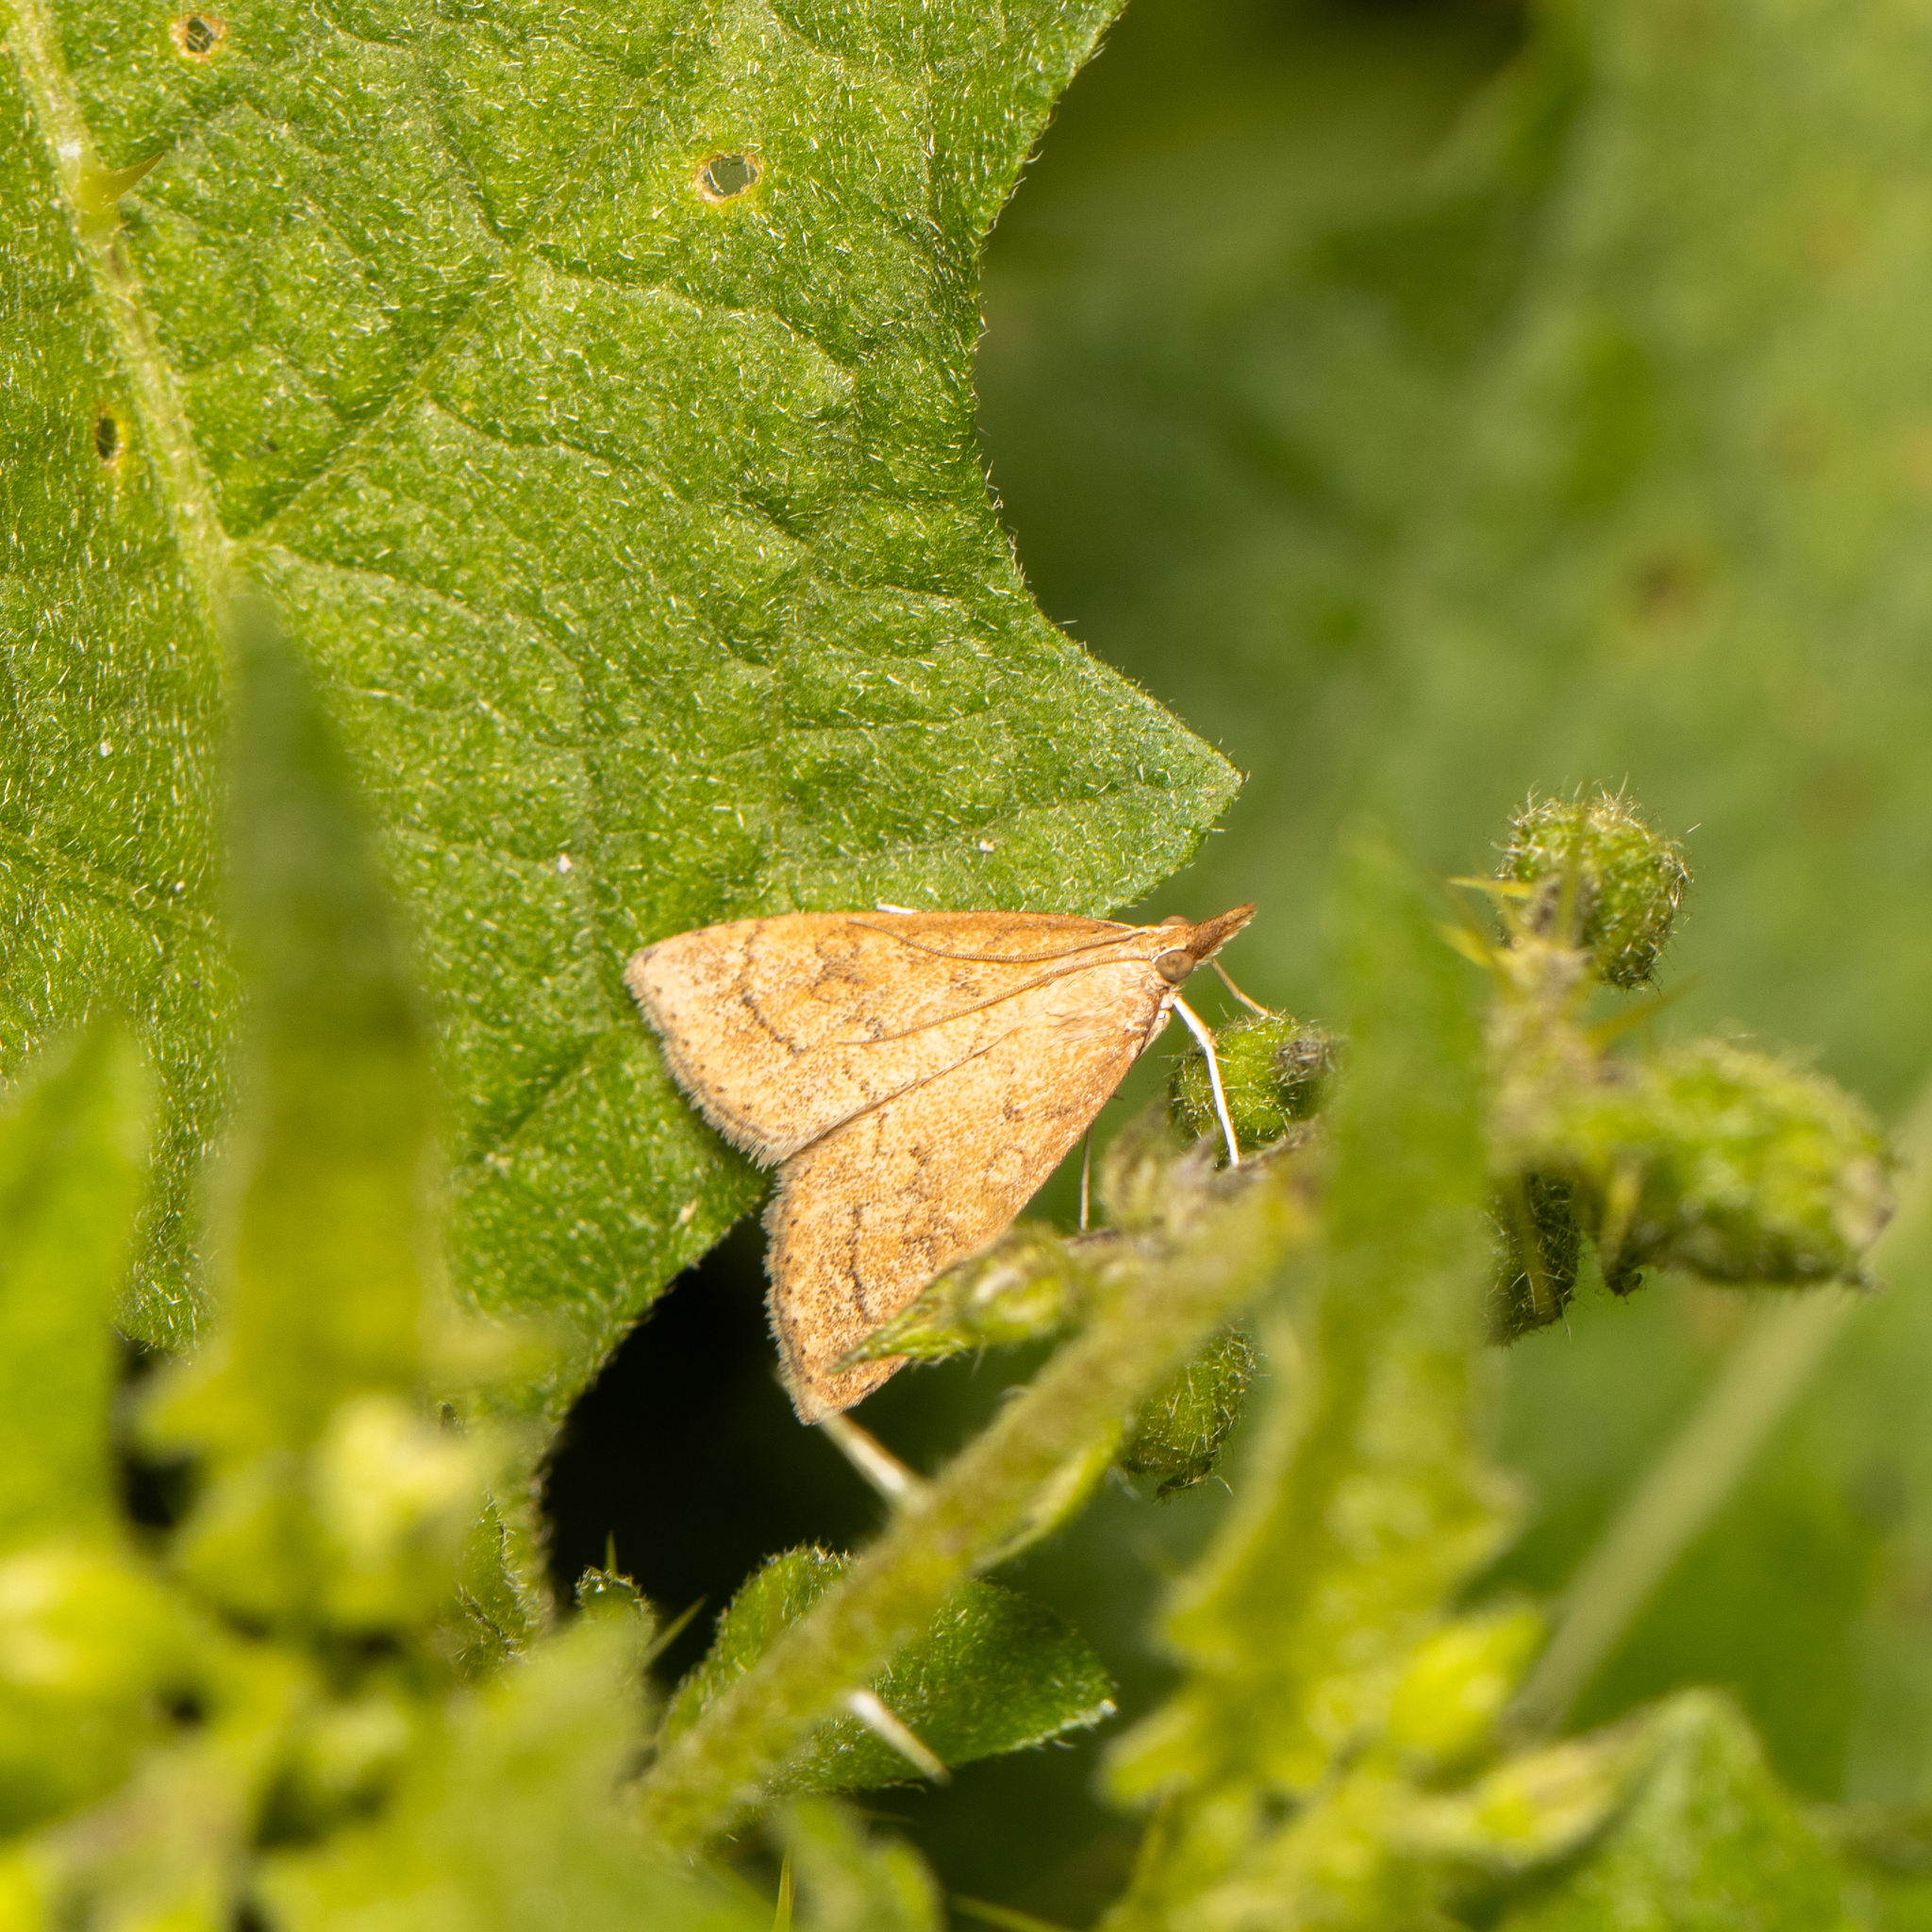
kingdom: Animalia
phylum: Arthropoda
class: Insecta
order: Lepidoptera
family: Crambidae
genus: Udea
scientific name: Udea rubigalis
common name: Celery leaftier moth
